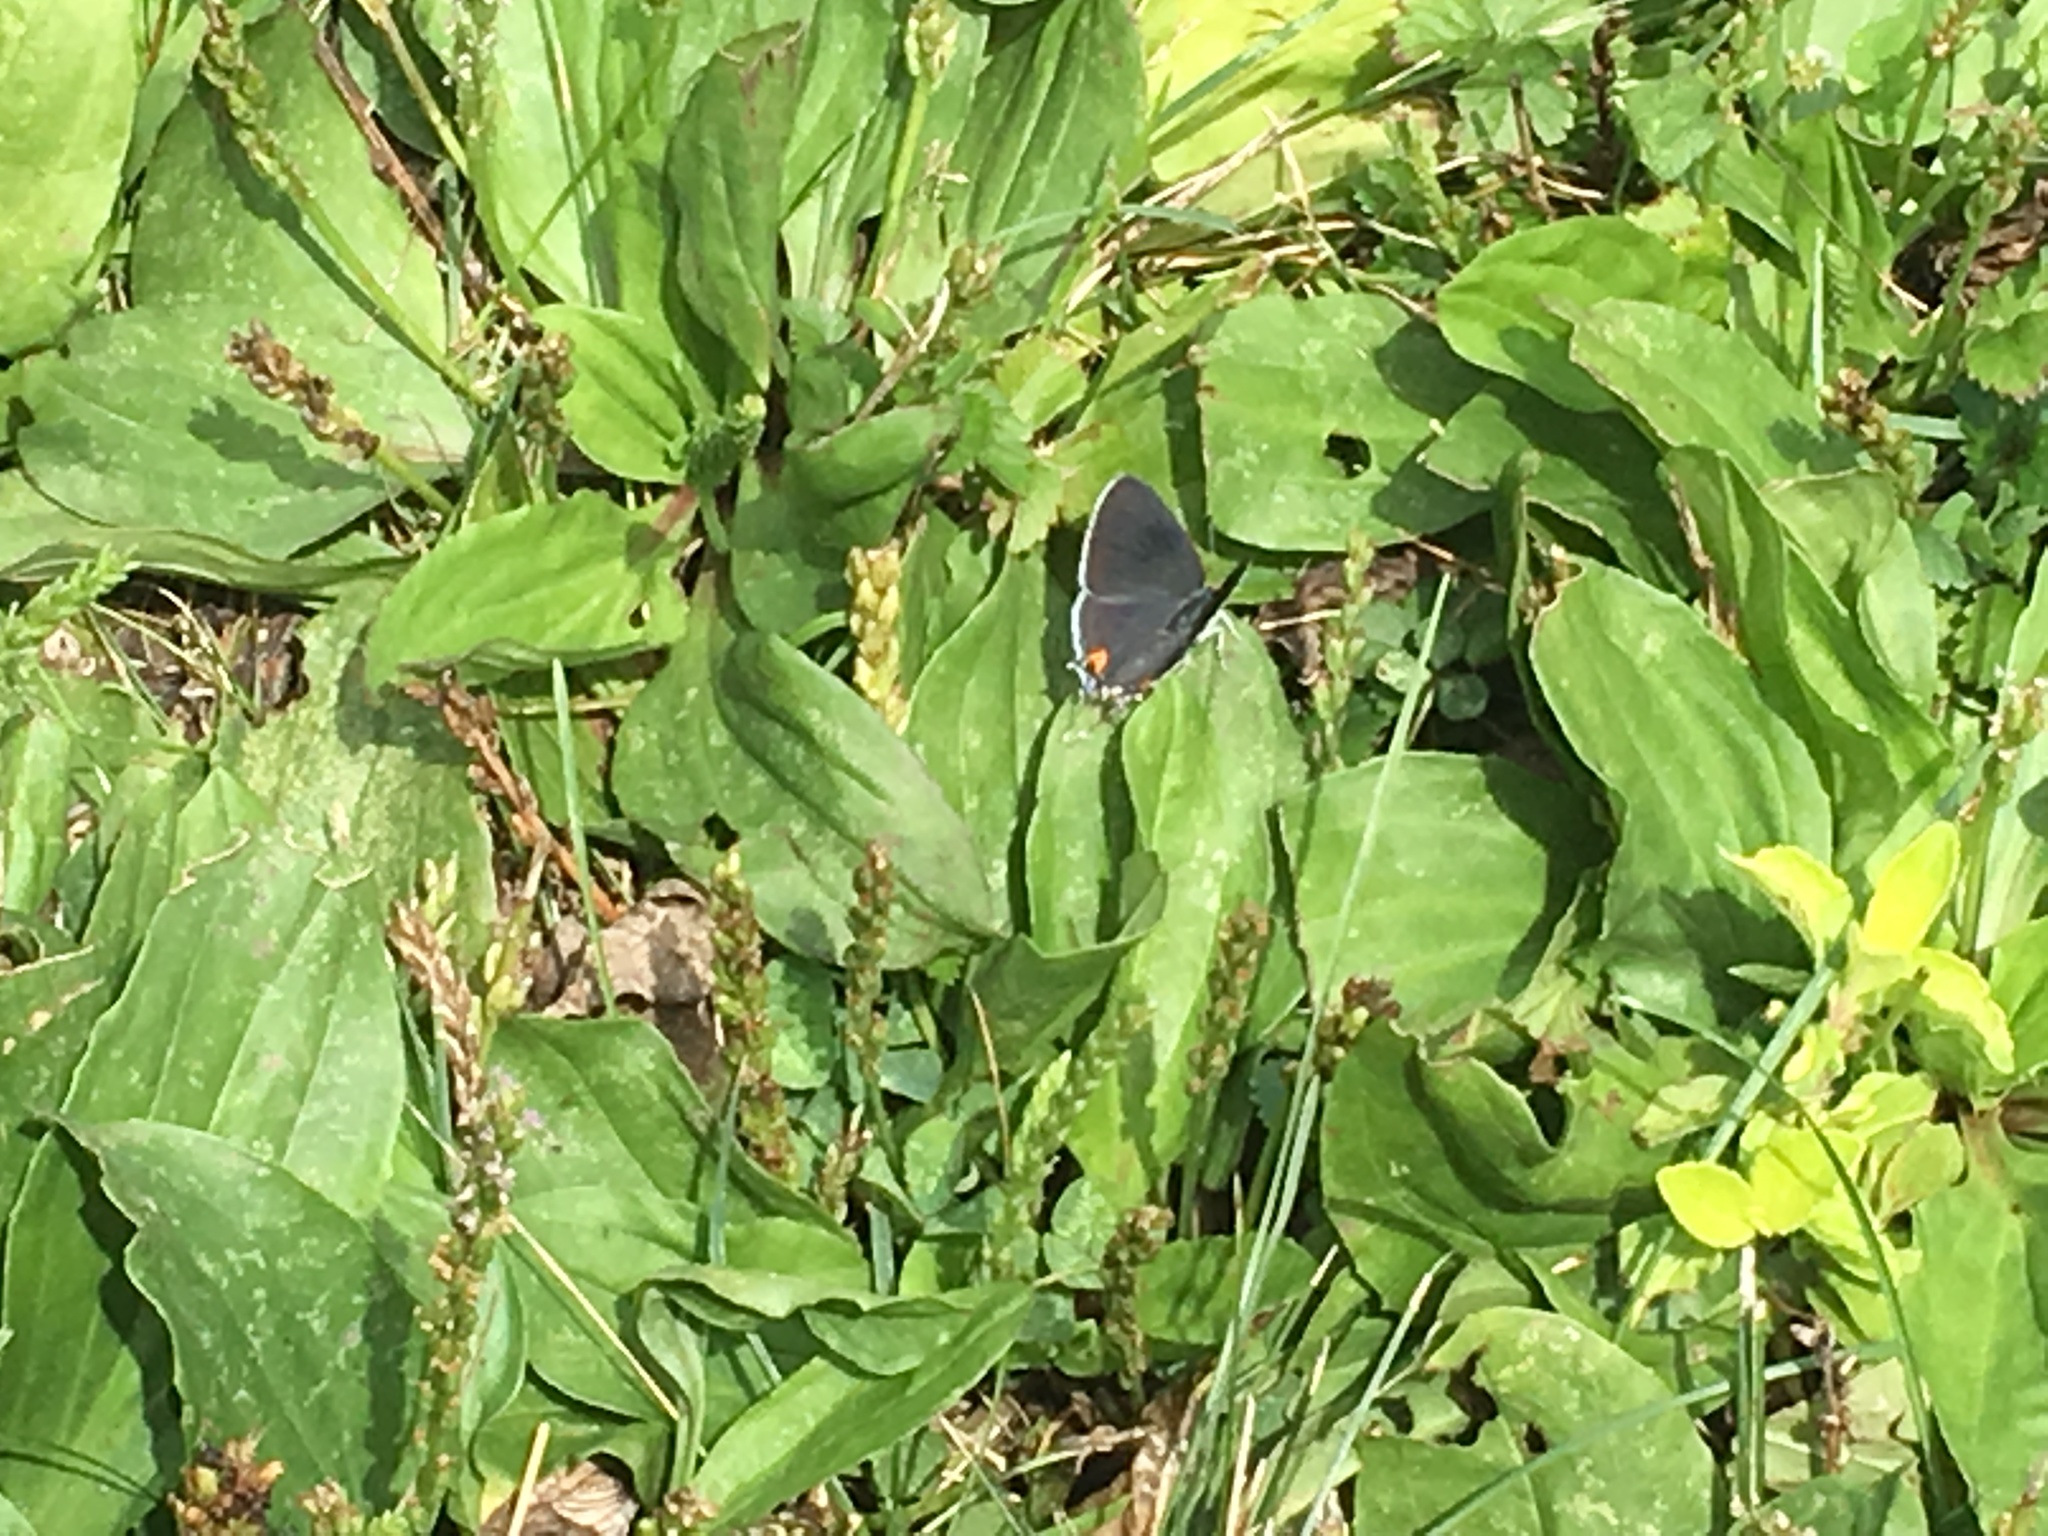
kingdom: Animalia
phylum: Arthropoda
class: Insecta
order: Lepidoptera
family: Lycaenidae
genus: Strymon
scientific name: Strymon melinus
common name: Gray hairstreak
